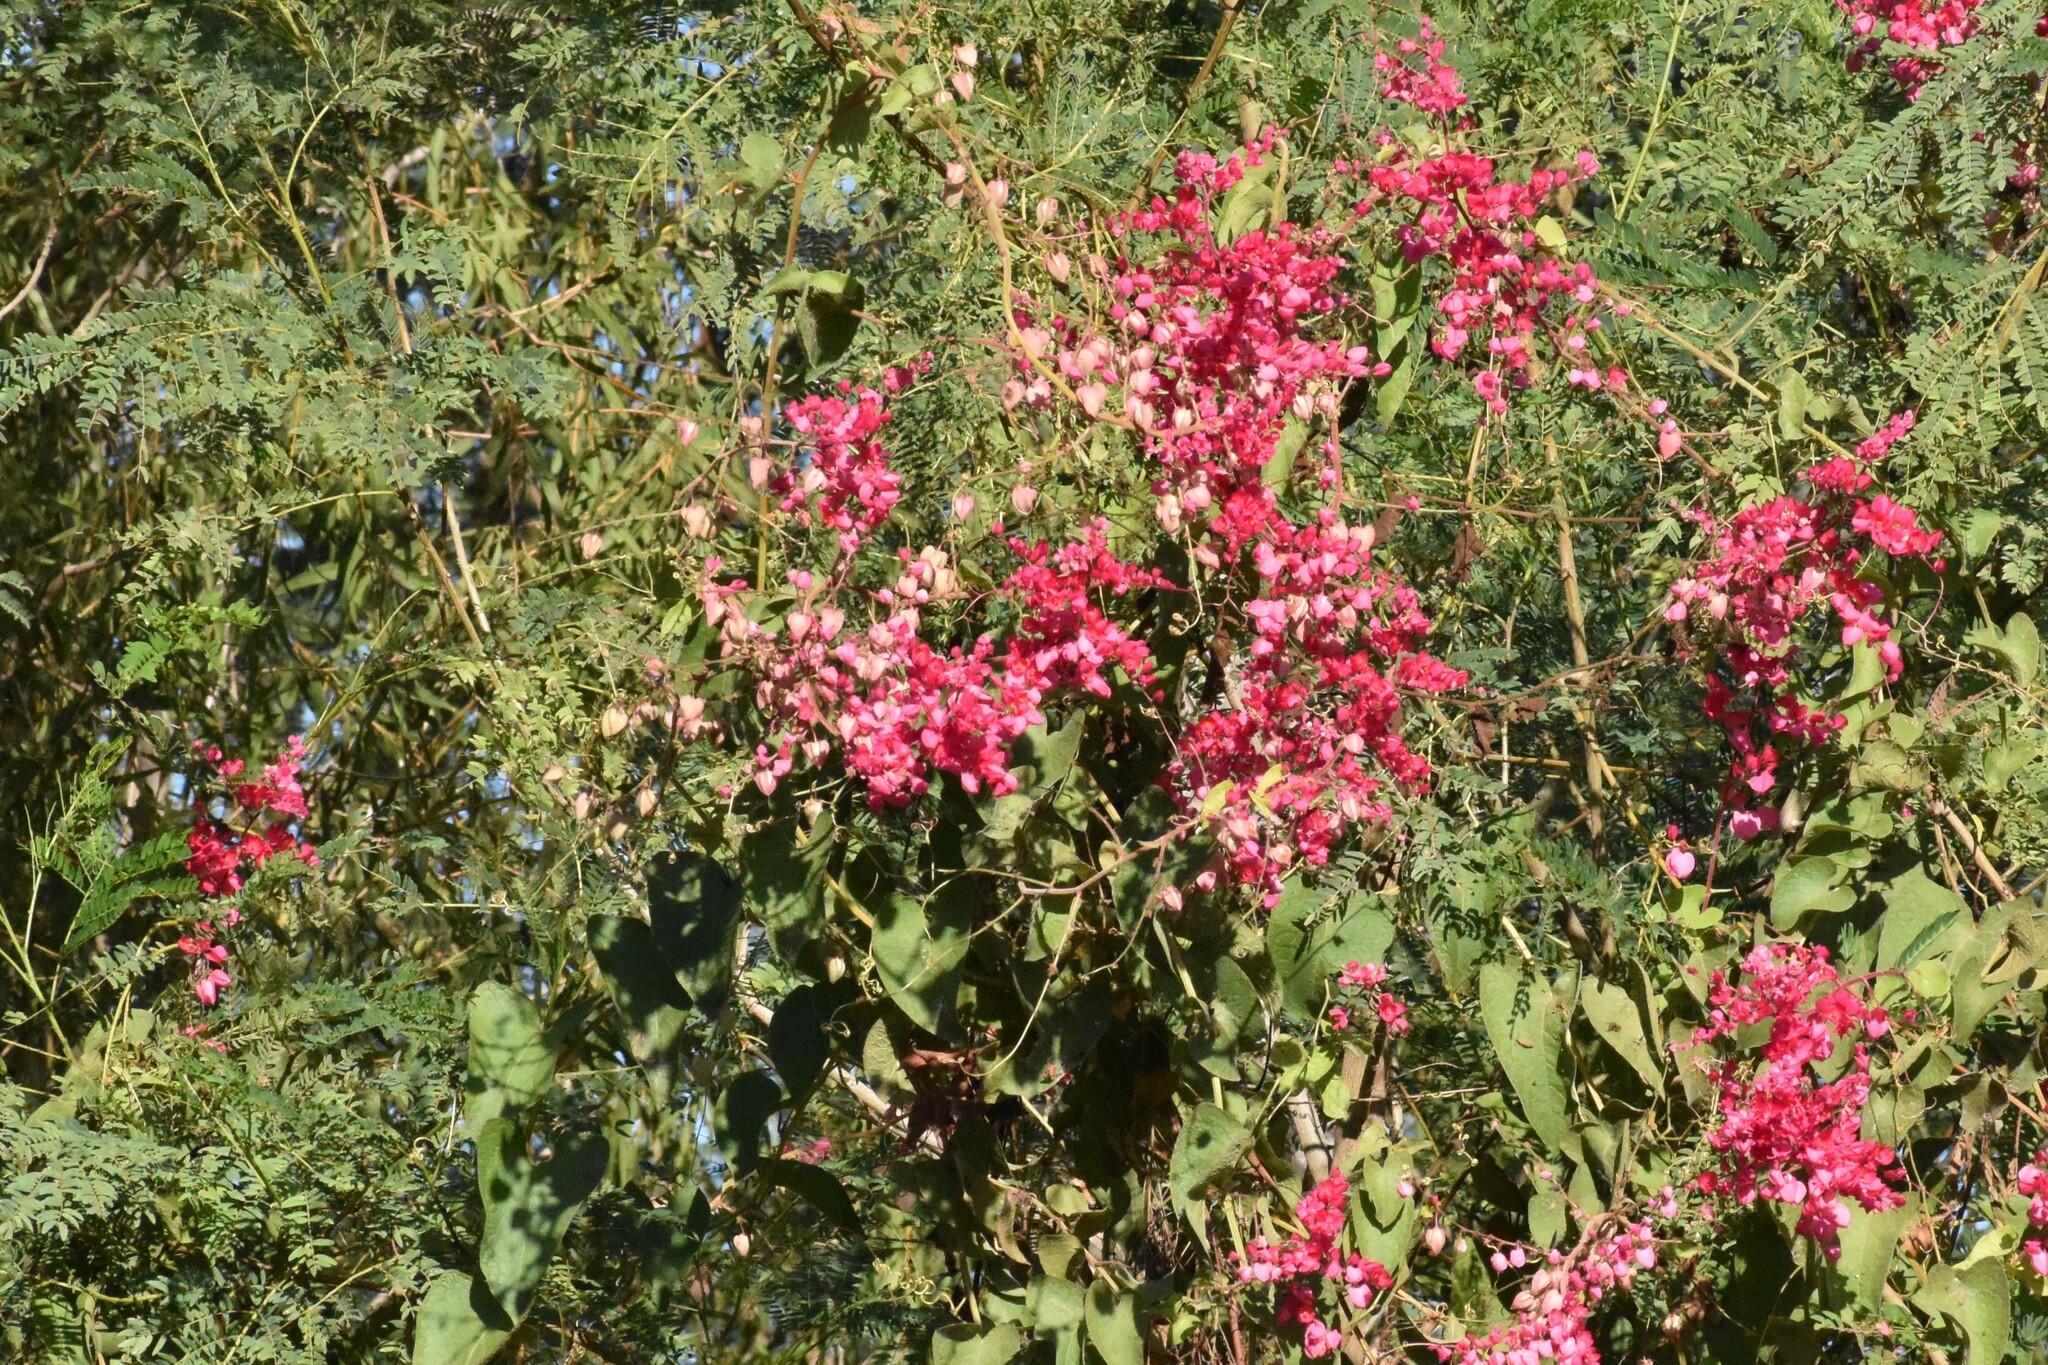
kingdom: Plantae
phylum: Tracheophyta
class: Magnoliopsida
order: Caryophyllales
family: Polygonaceae
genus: Antigonon
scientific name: Antigonon leptopus
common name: Coral vine
